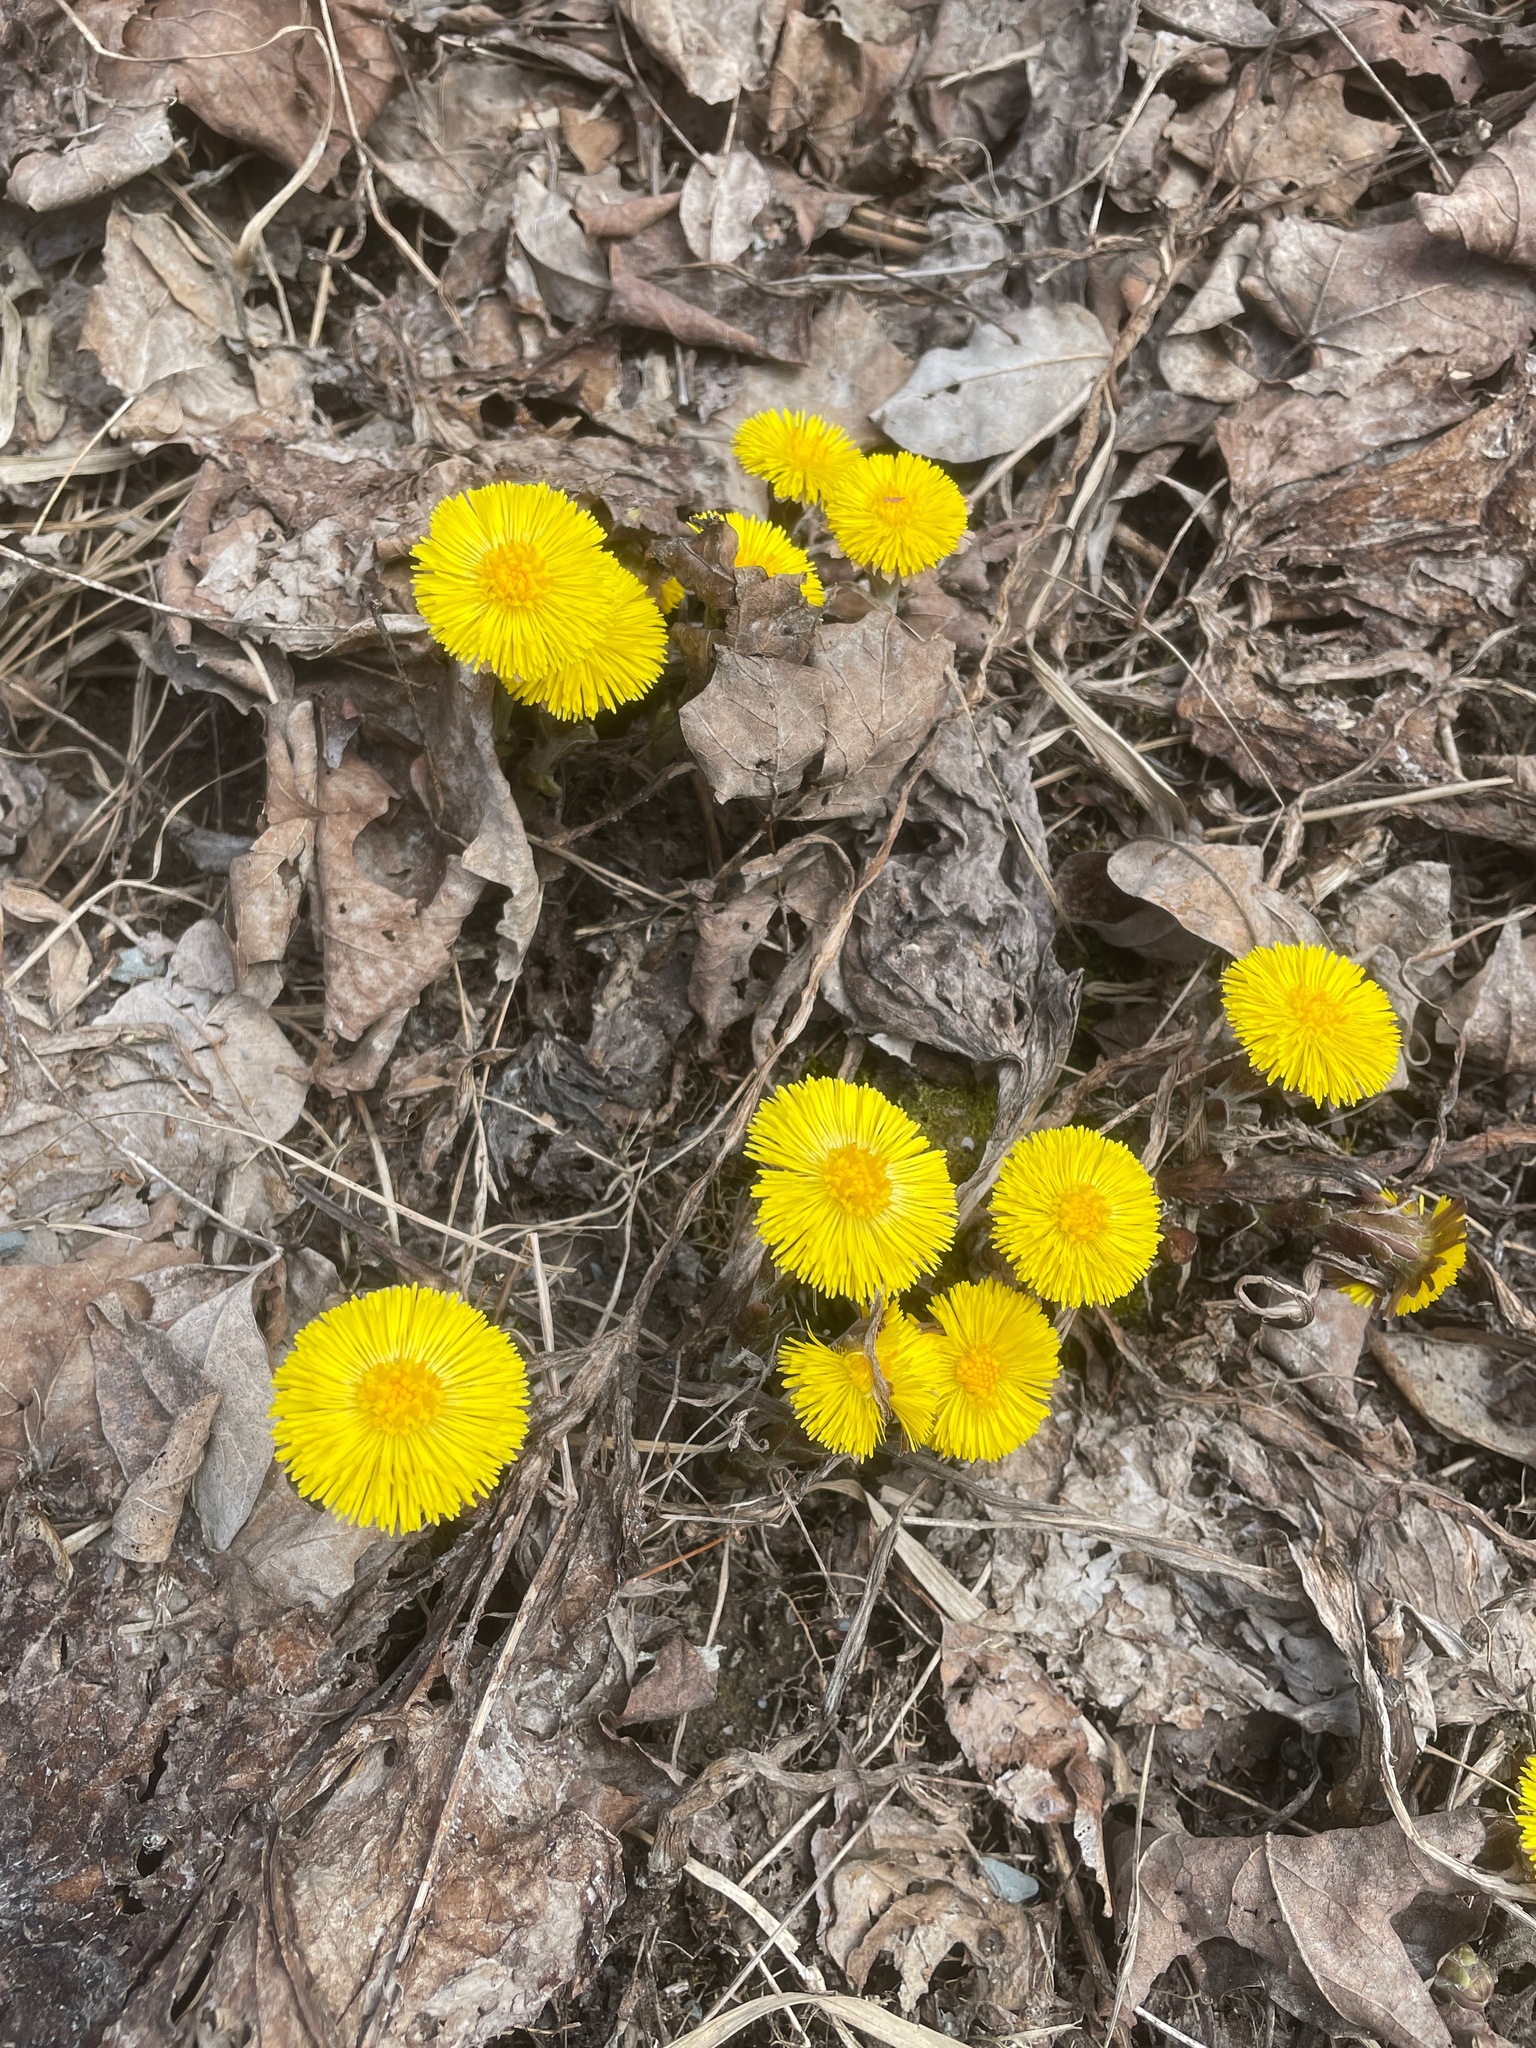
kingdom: Plantae
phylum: Tracheophyta
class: Magnoliopsida
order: Asterales
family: Asteraceae
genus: Tussilago
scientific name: Tussilago farfara
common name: Coltsfoot
